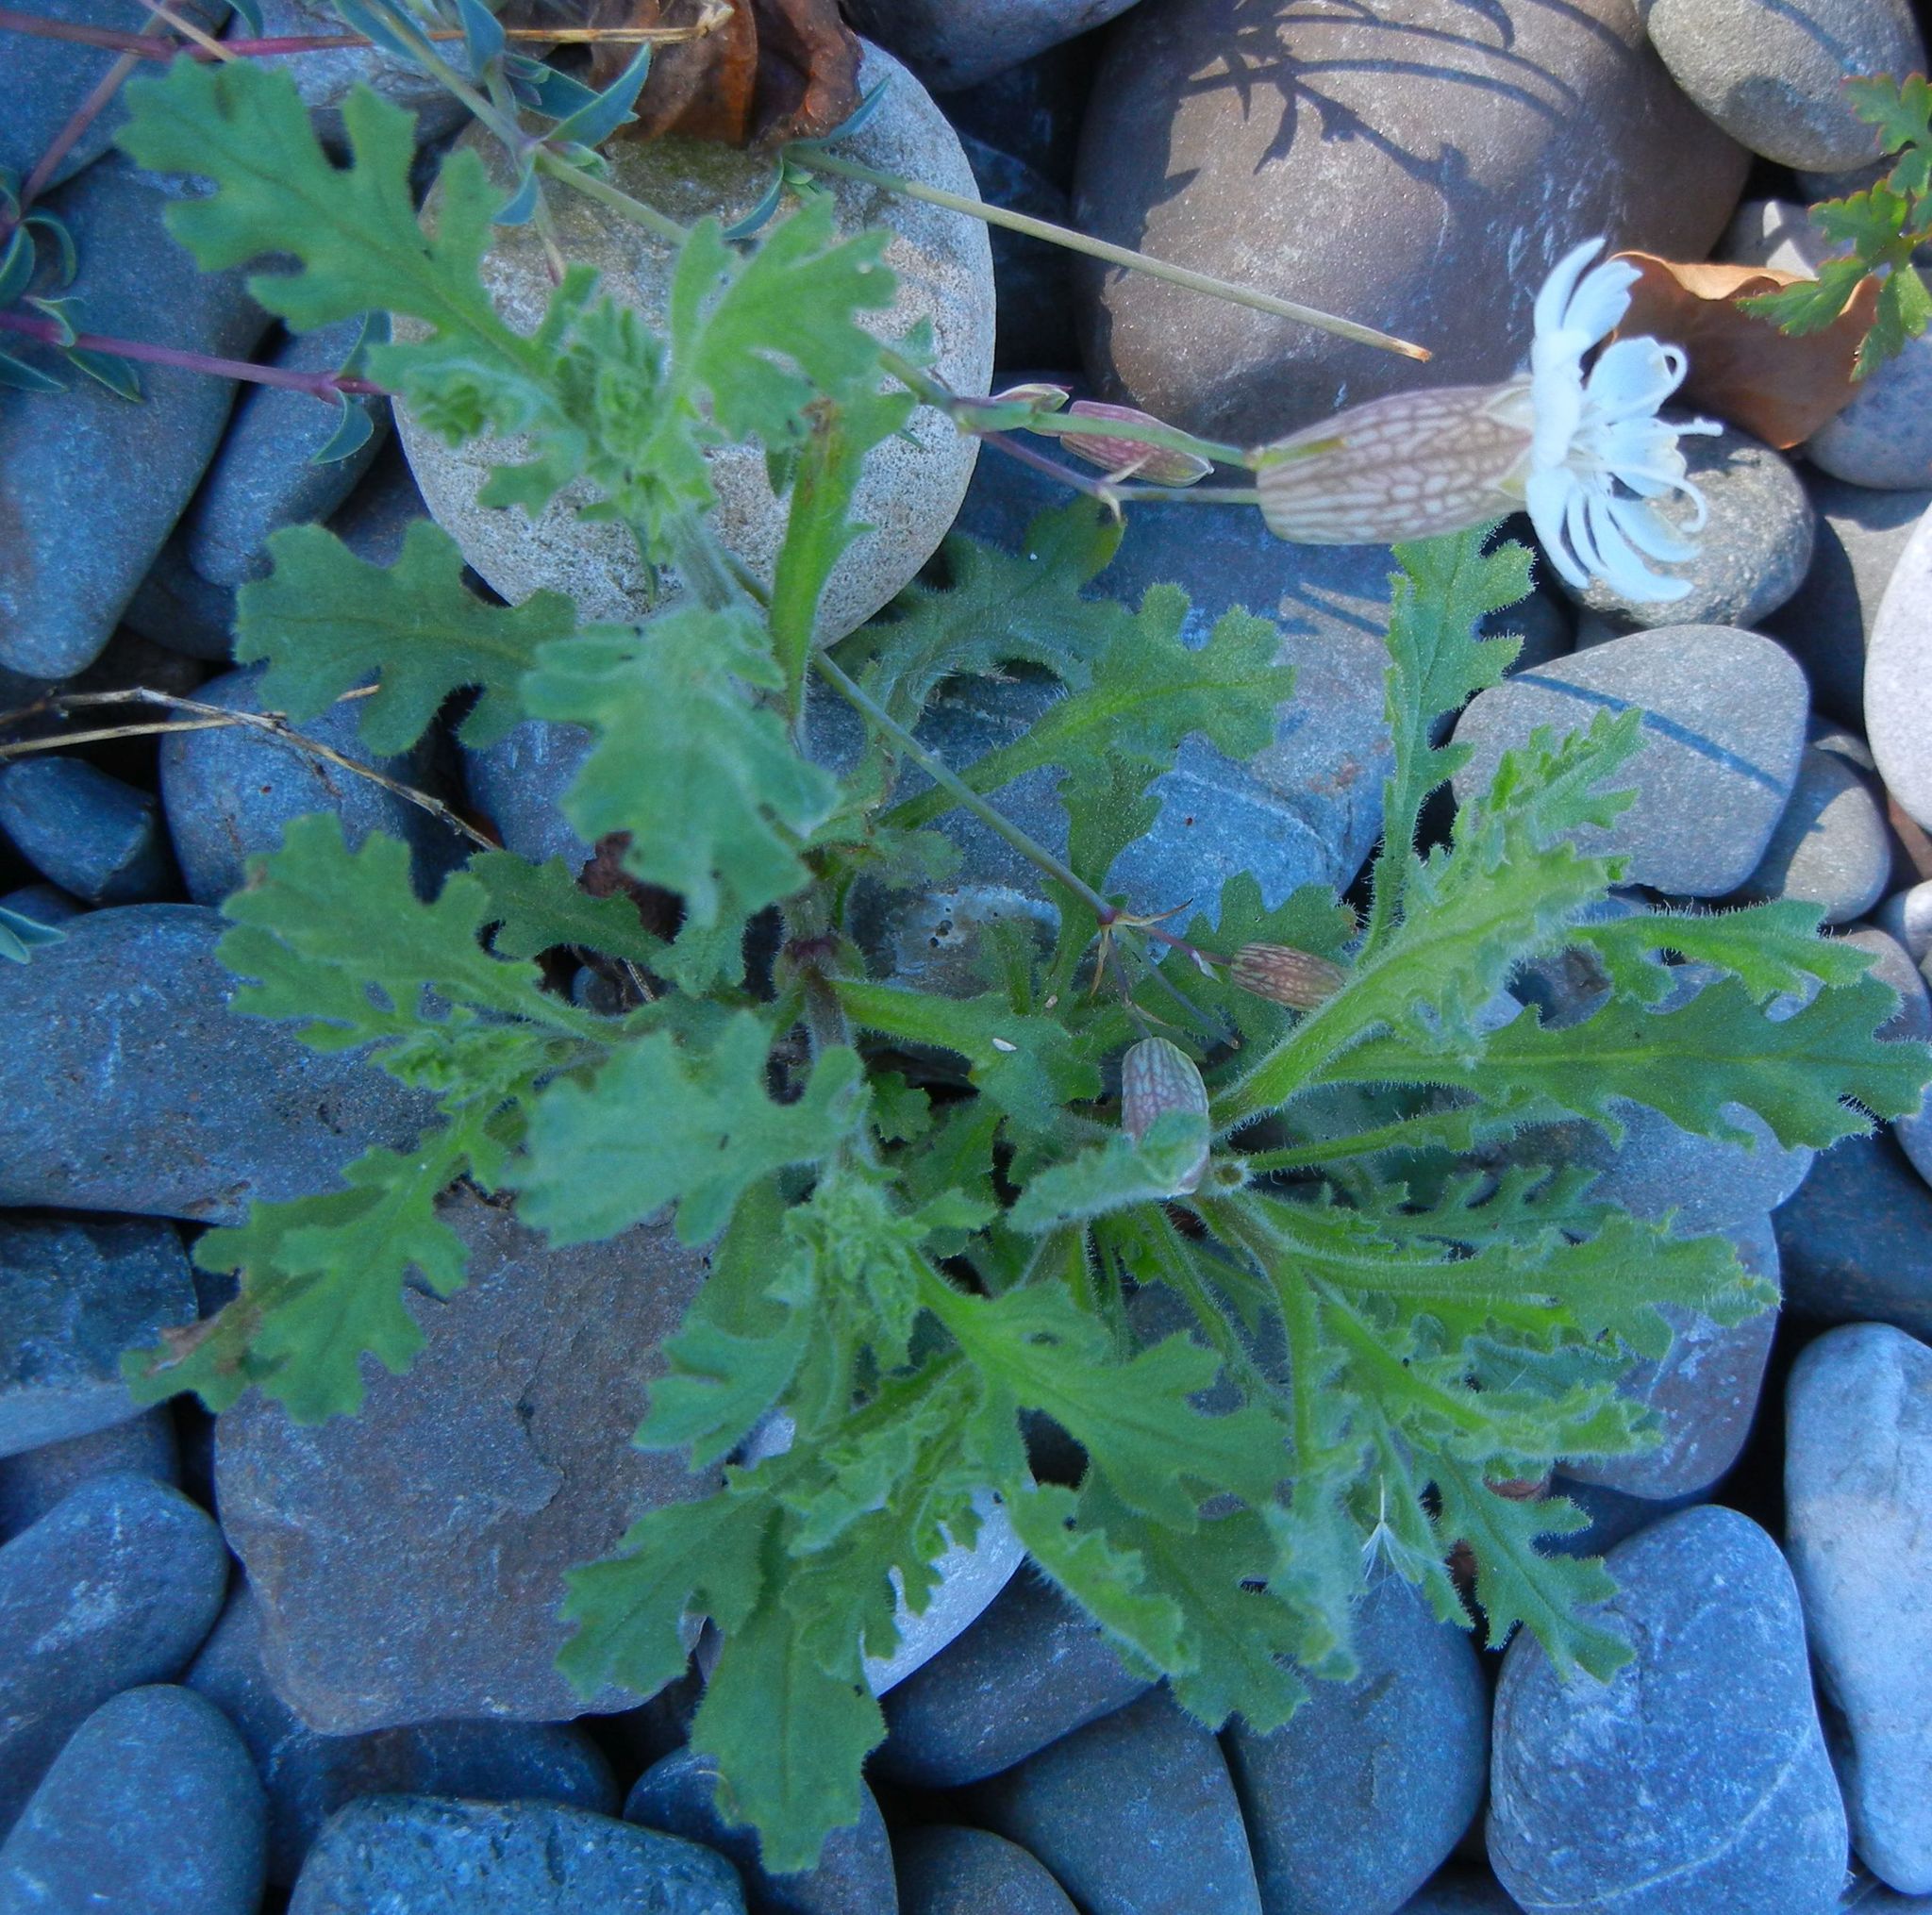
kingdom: Plantae
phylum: Tracheophyta
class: Magnoliopsida
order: Caryophyllales
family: Caryophyllaceae
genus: Silene
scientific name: Silene uniflora
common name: Sea campion
